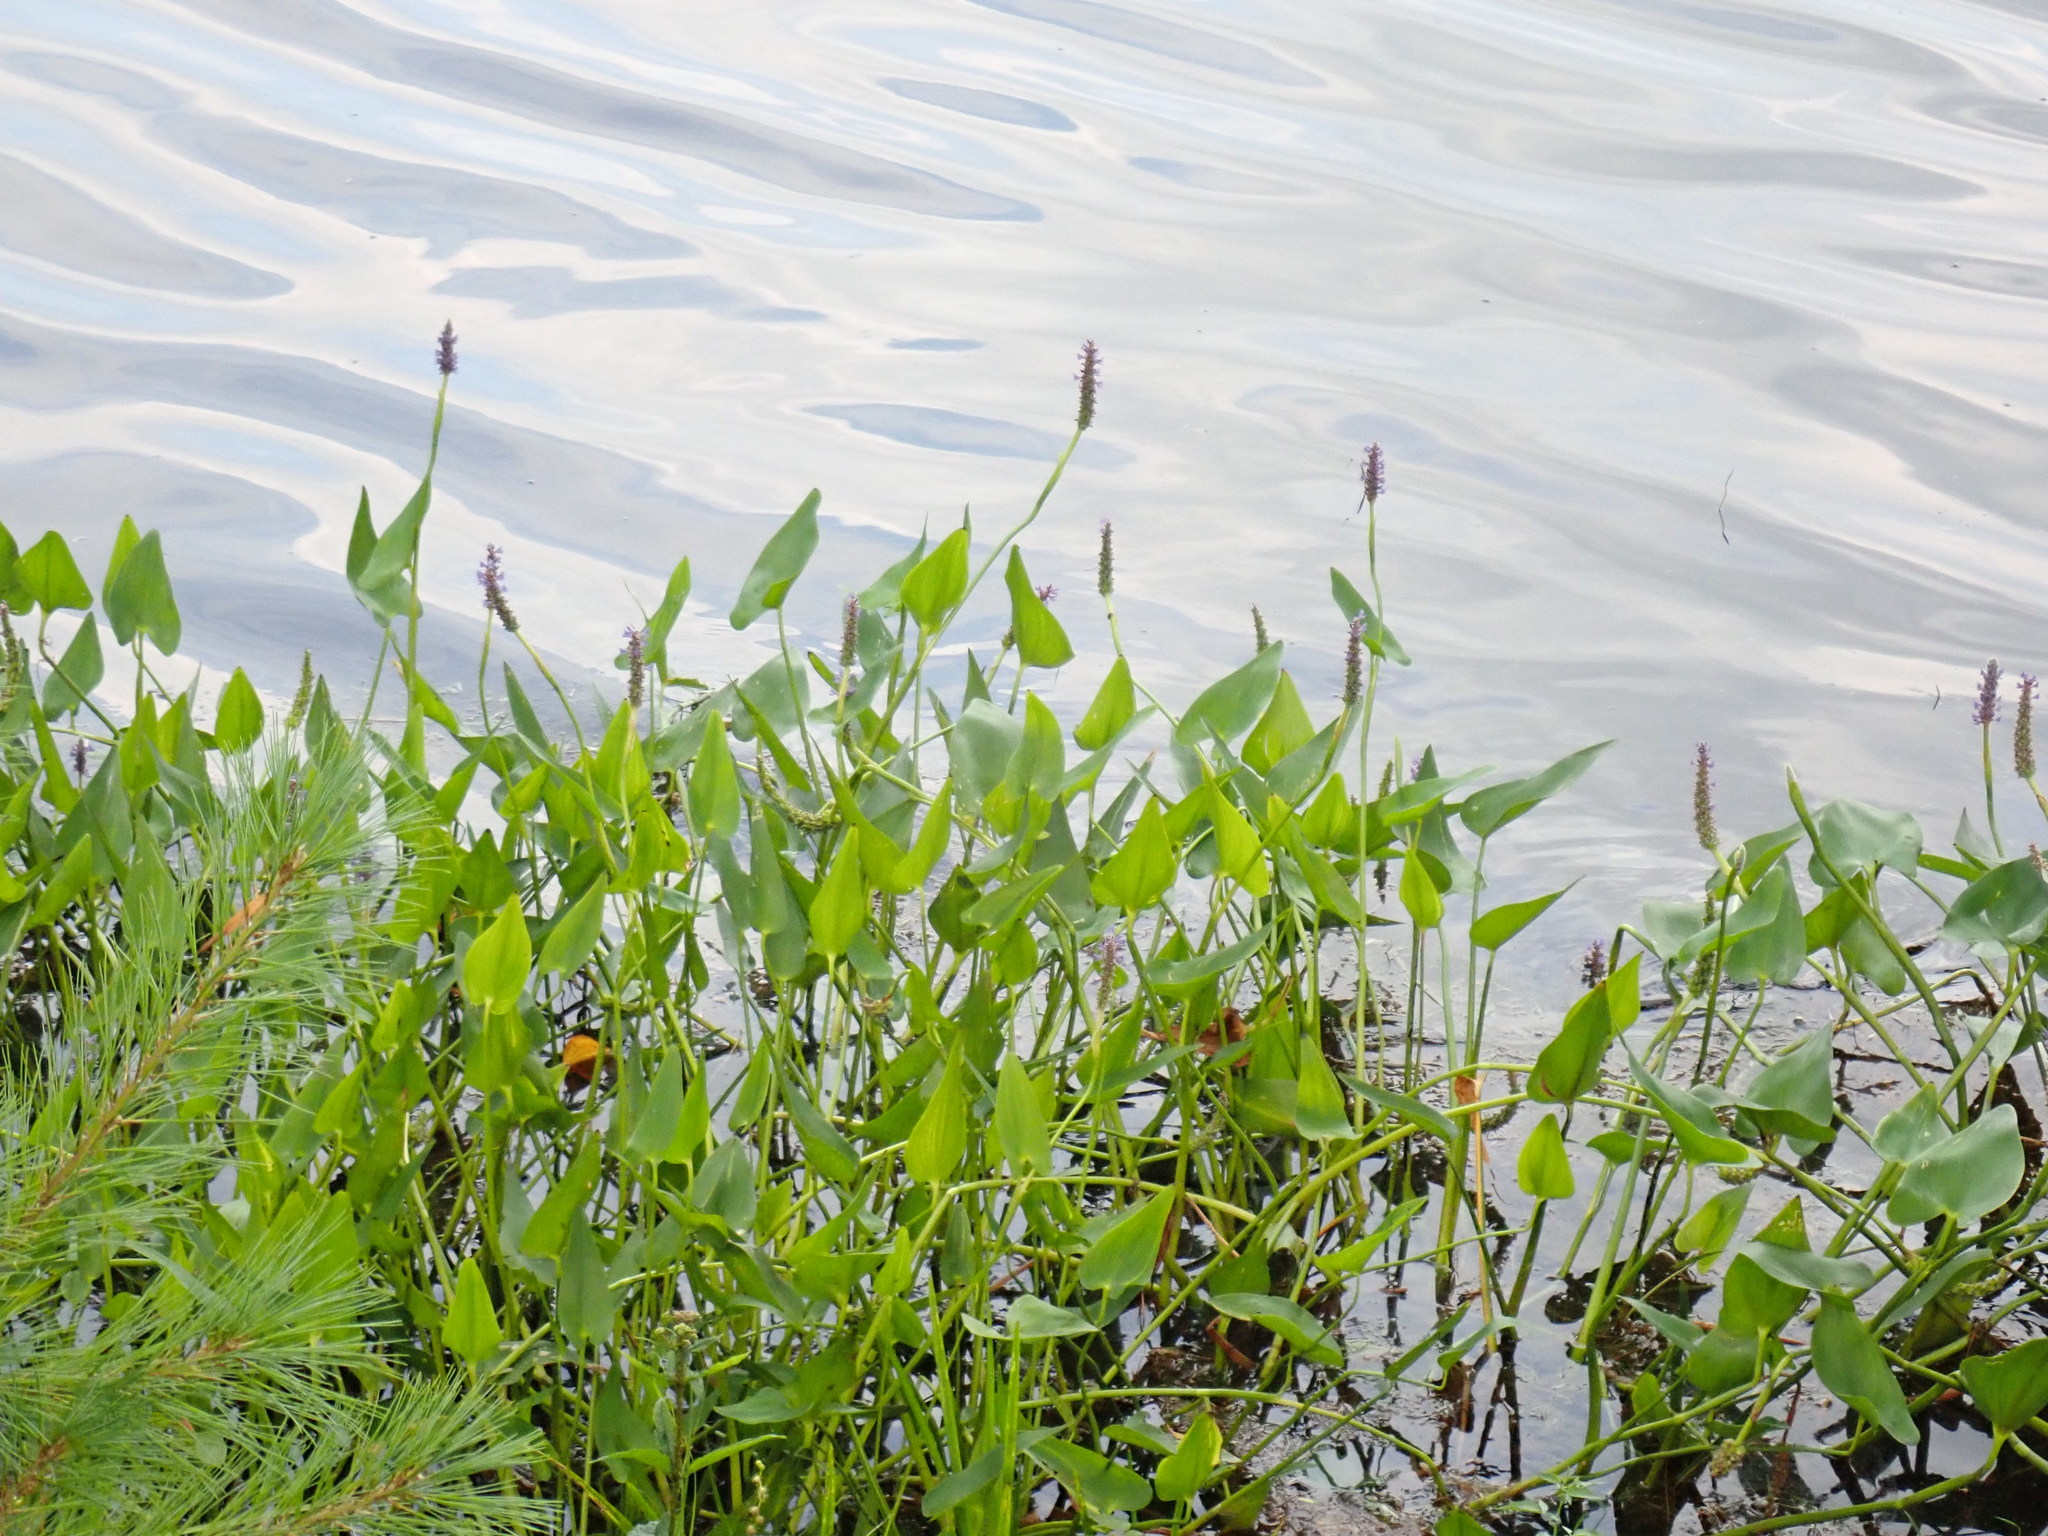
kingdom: Plantae
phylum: Tracheophyta
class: Liliopsida
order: Commelinales
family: Pontederiaceae
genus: Pontederia
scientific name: Pontederia cordata
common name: Pickerelweed
